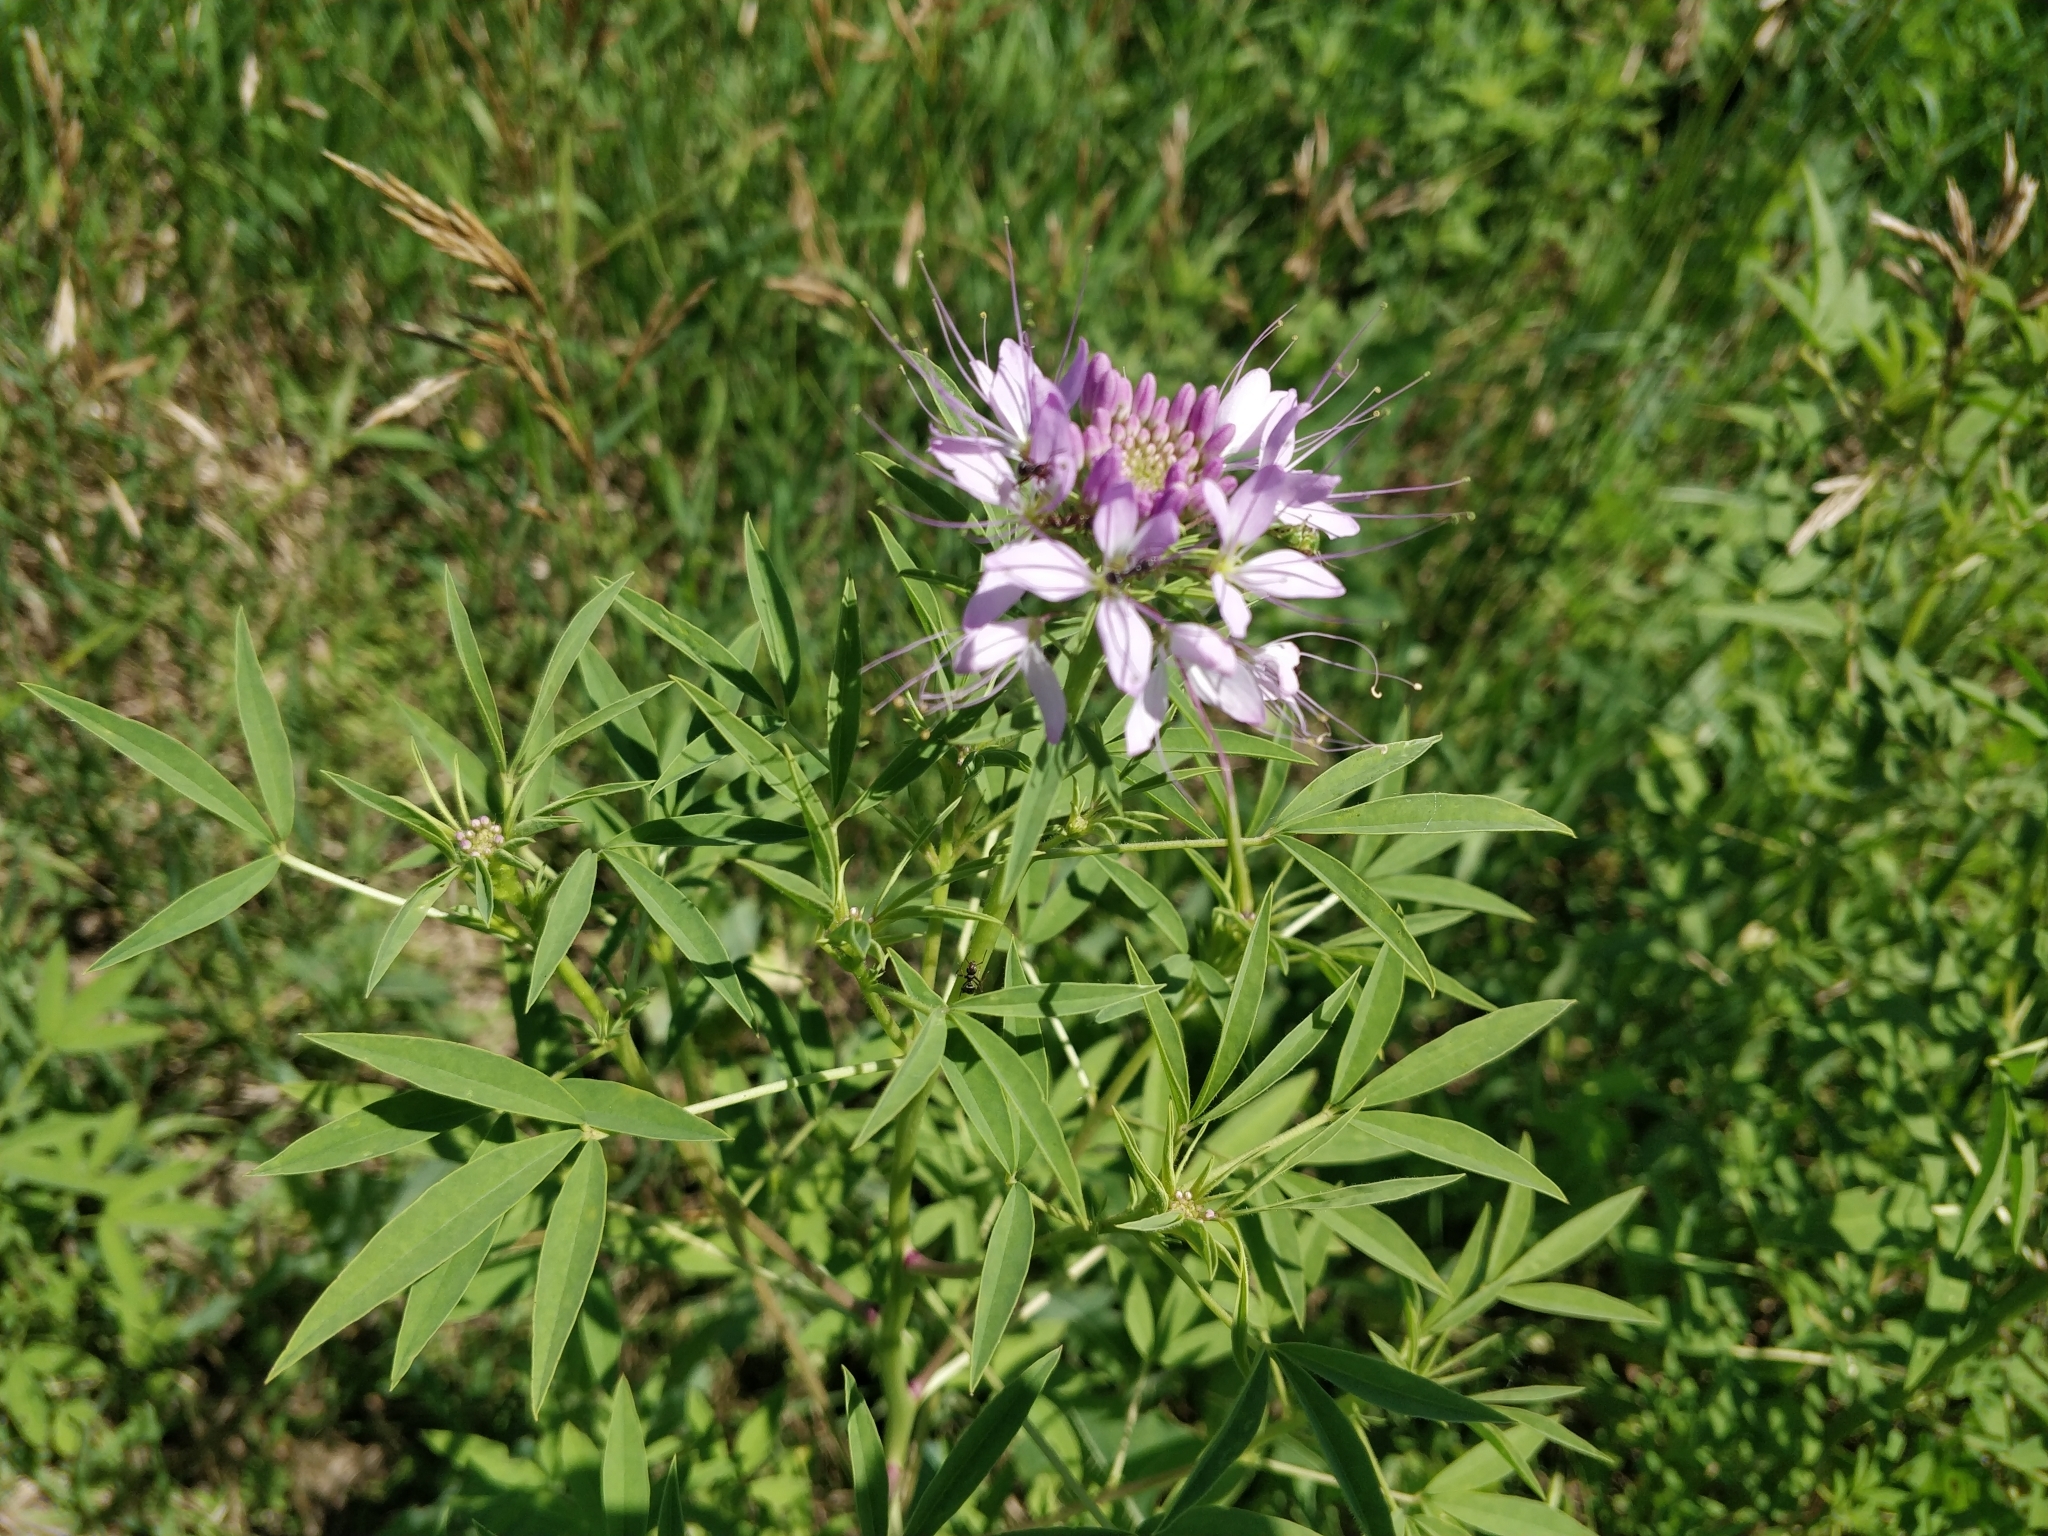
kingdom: Plantae
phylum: Tracheophyta
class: Magnoliopsida
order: Brassicales
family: Cleomaceae
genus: Cleomella
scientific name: Cleomella serrulata
